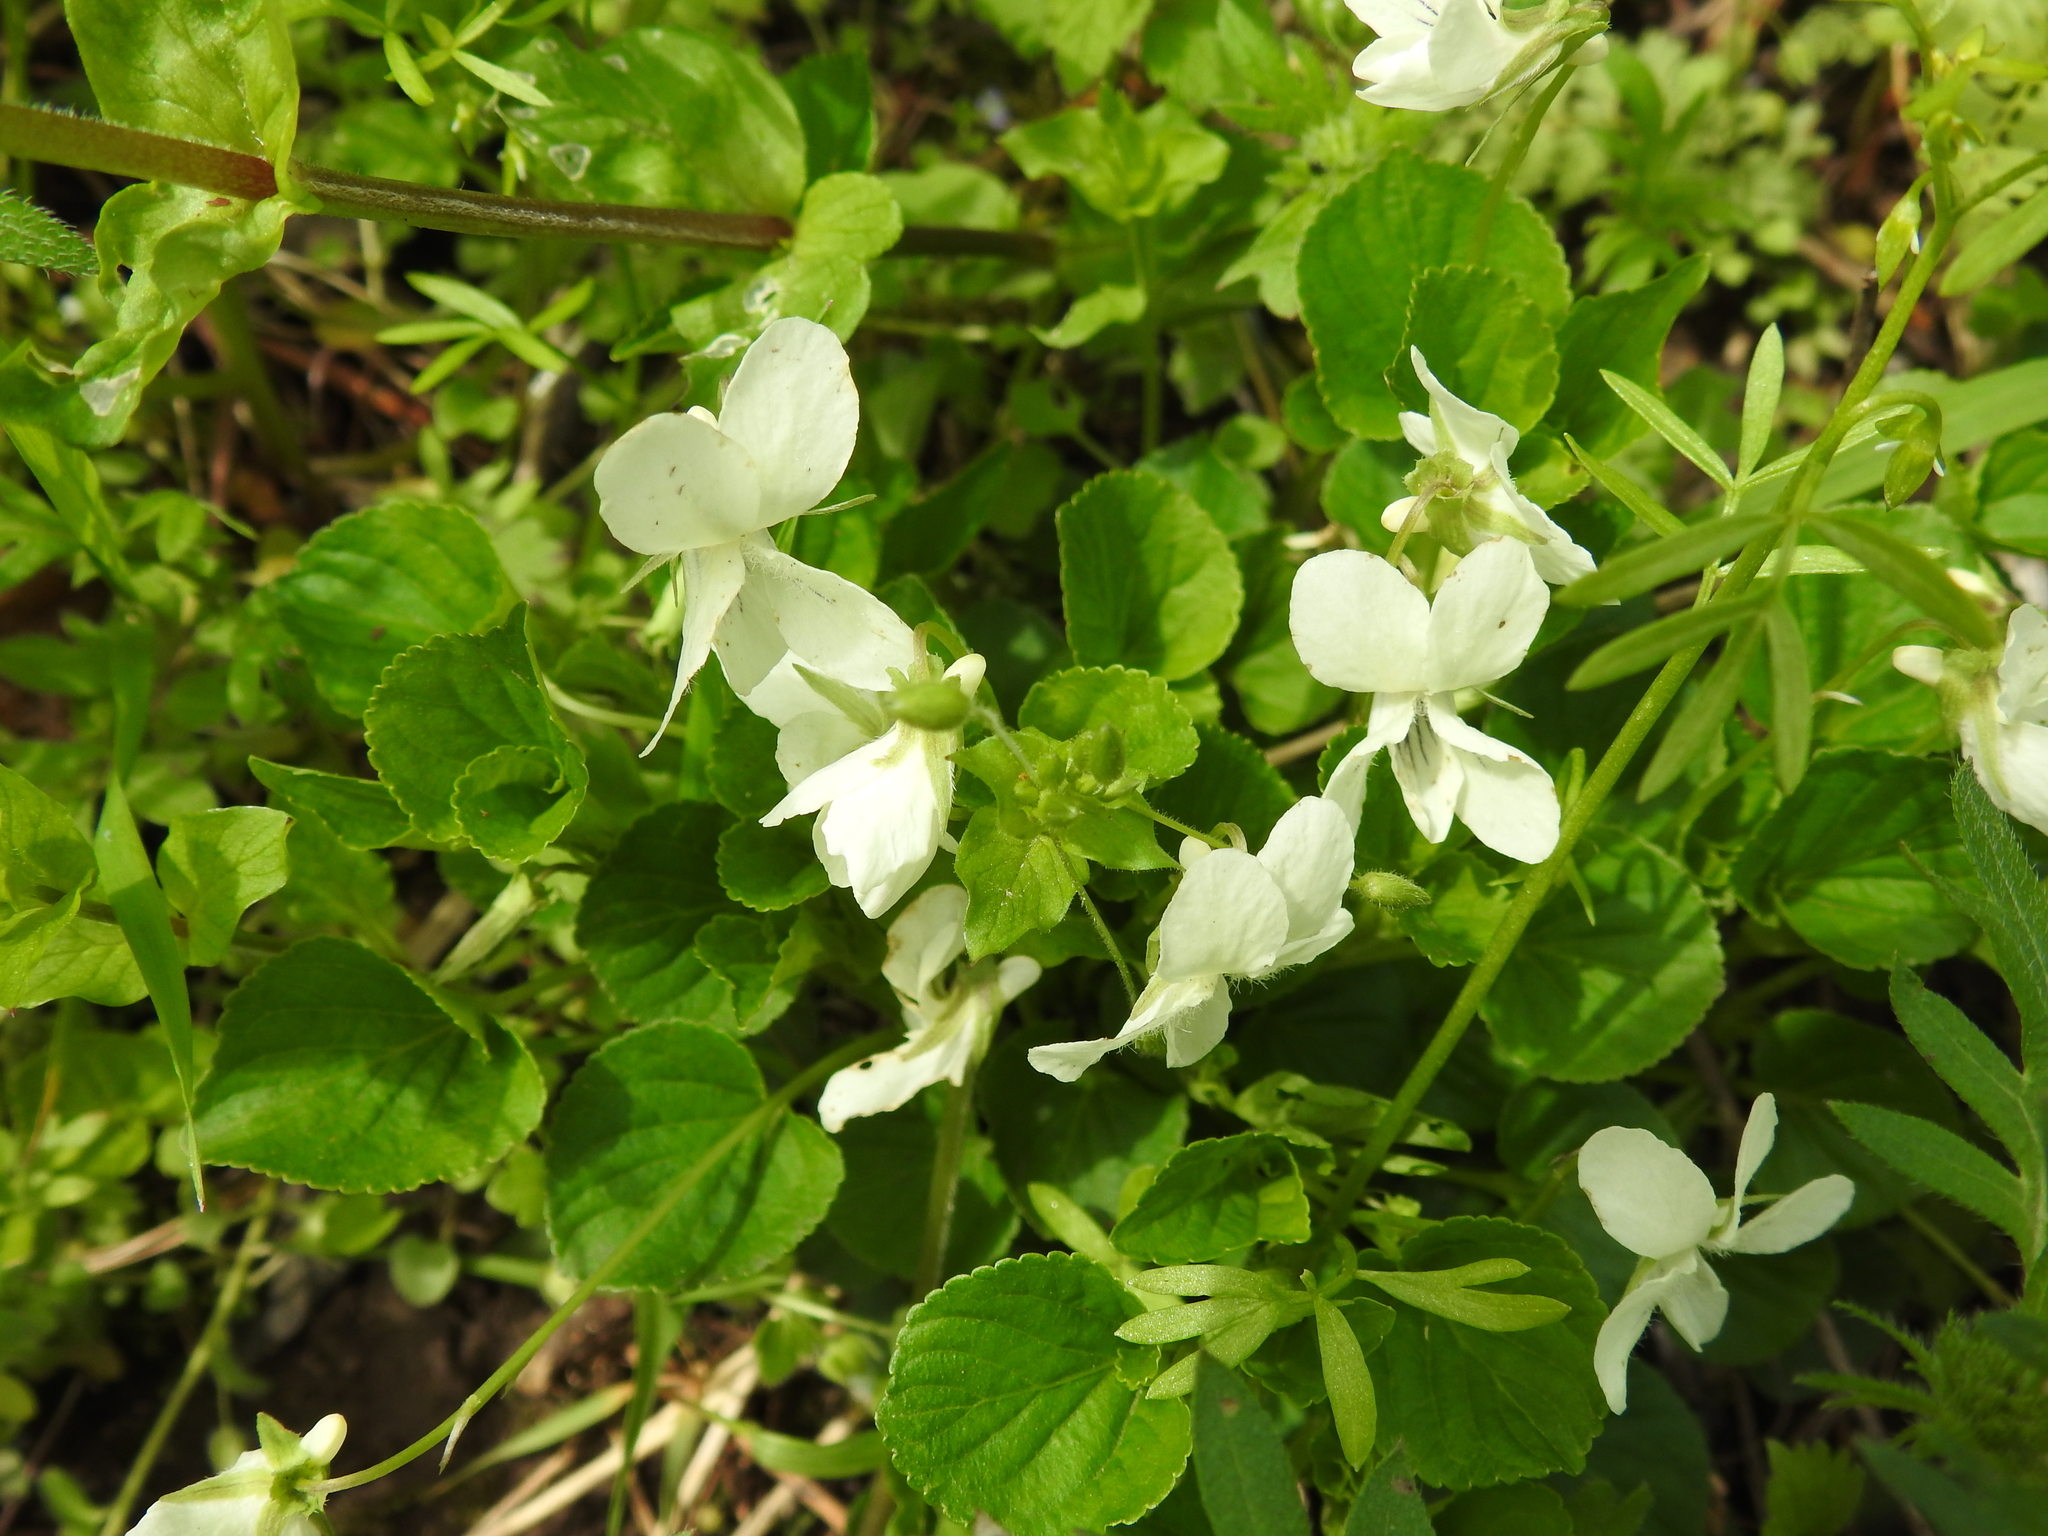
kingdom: Plantae
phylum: Tracheophyta
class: Magnoliopsida
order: Malpighiales
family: Violaceae
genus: Viola
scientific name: Viola striata
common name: Cream violet
